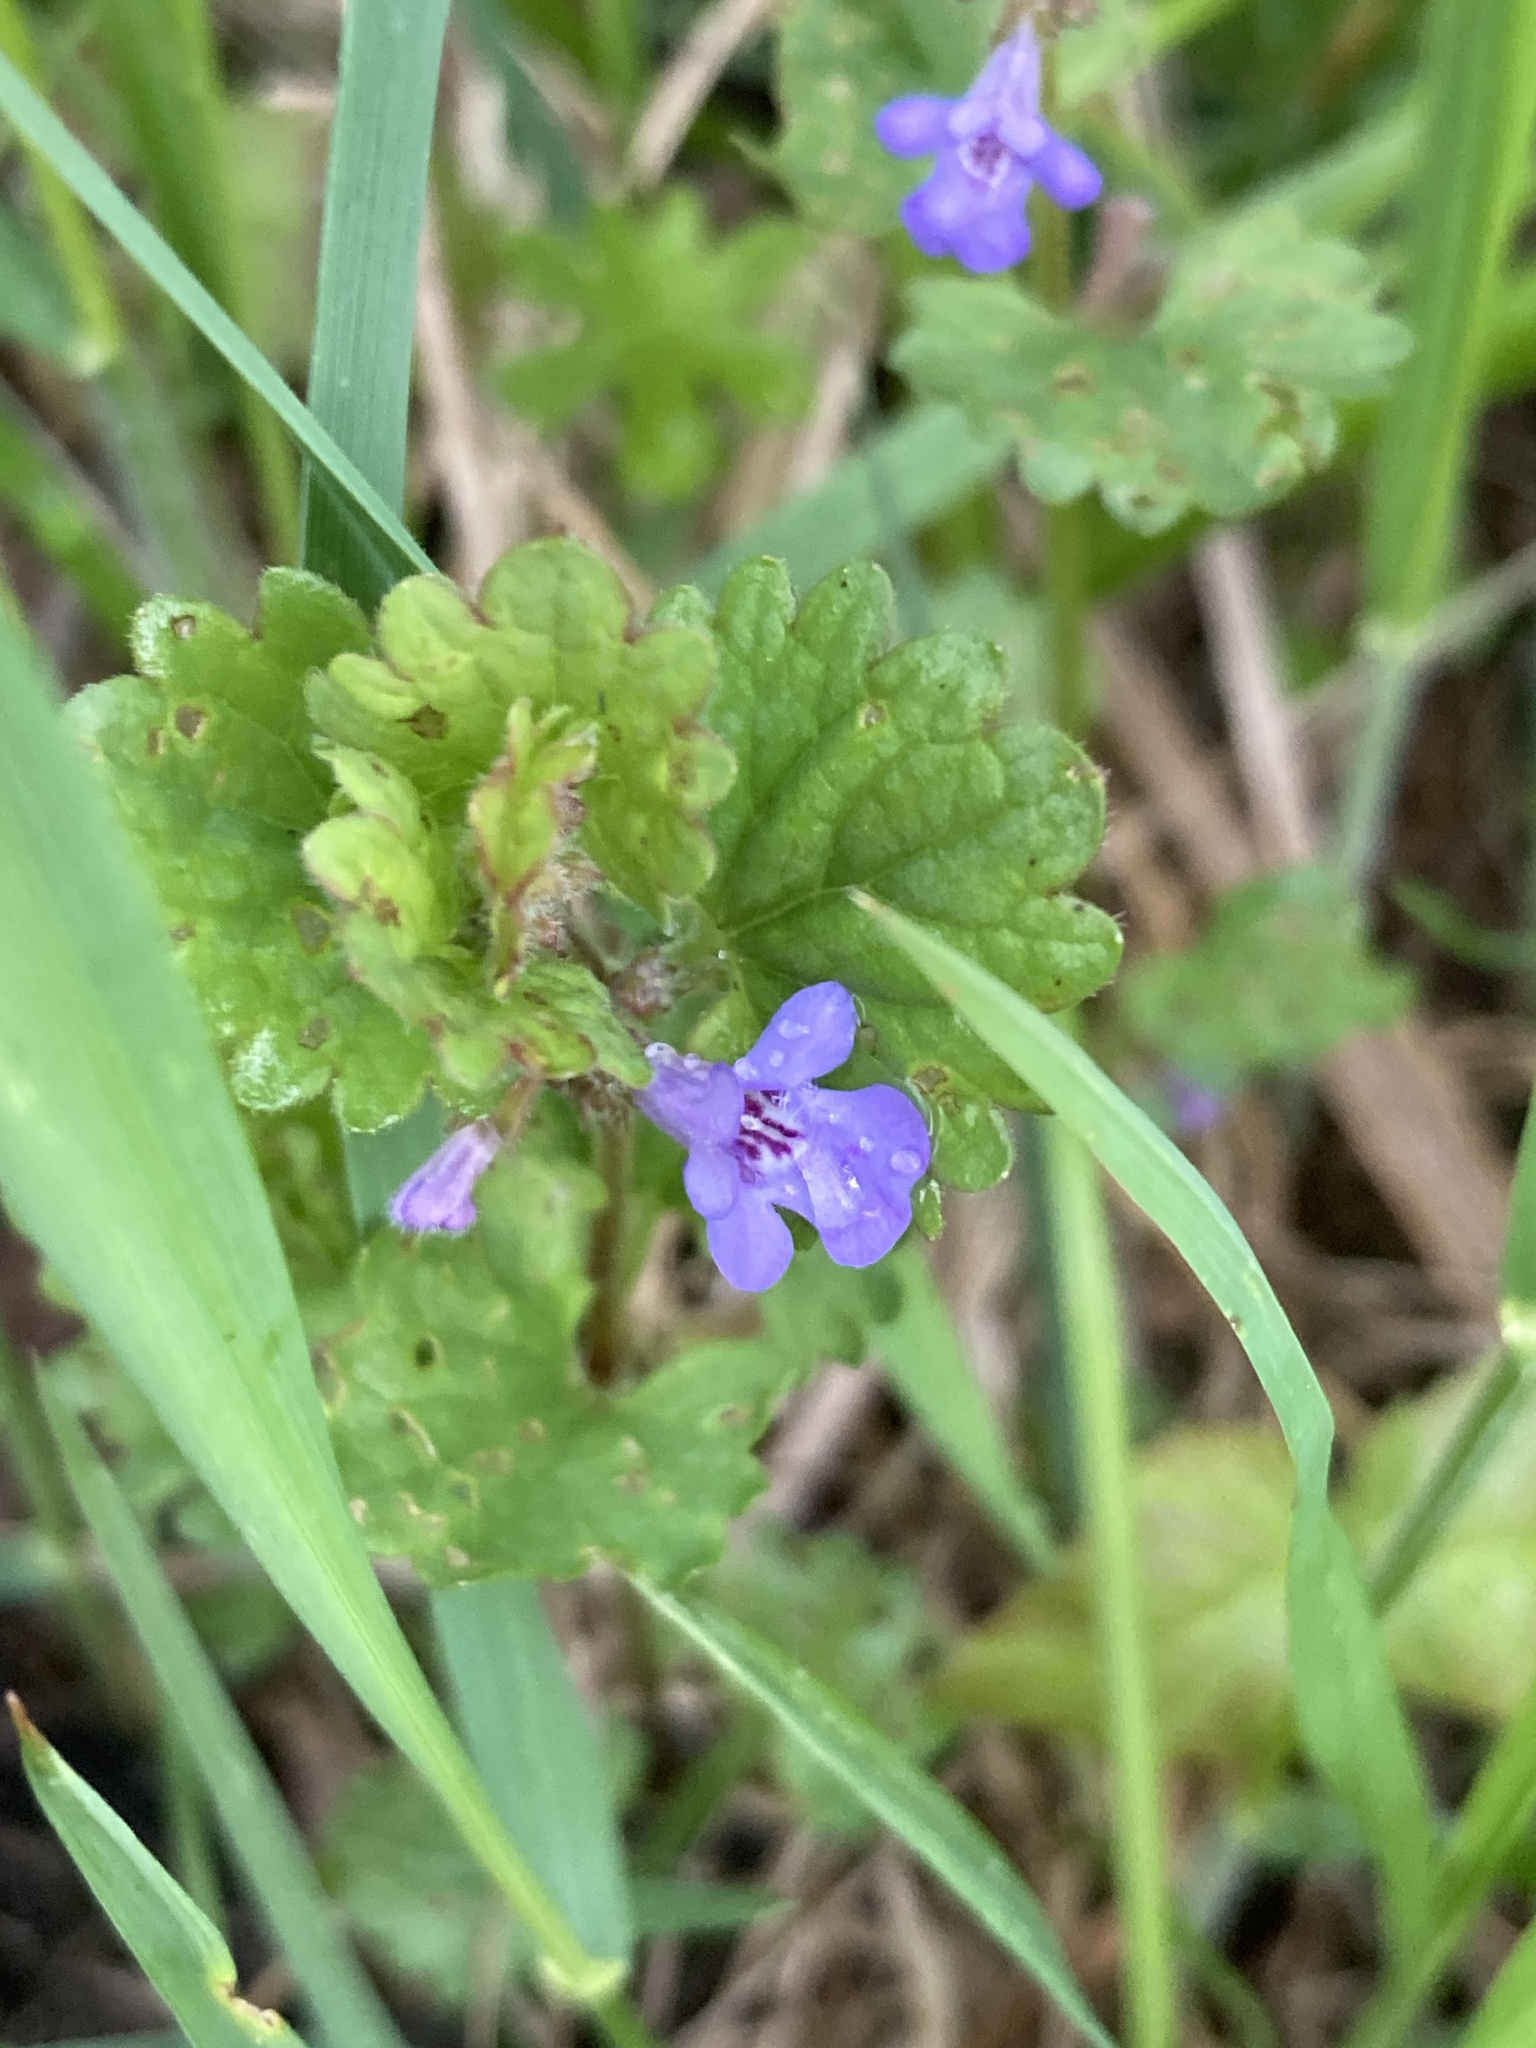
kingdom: Plantae
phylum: Tracheophyta
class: Magnoliopsida
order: Lamiales
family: Lamiaceae
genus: Glechoma
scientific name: Glechoma hederacea
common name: Ground ivy
